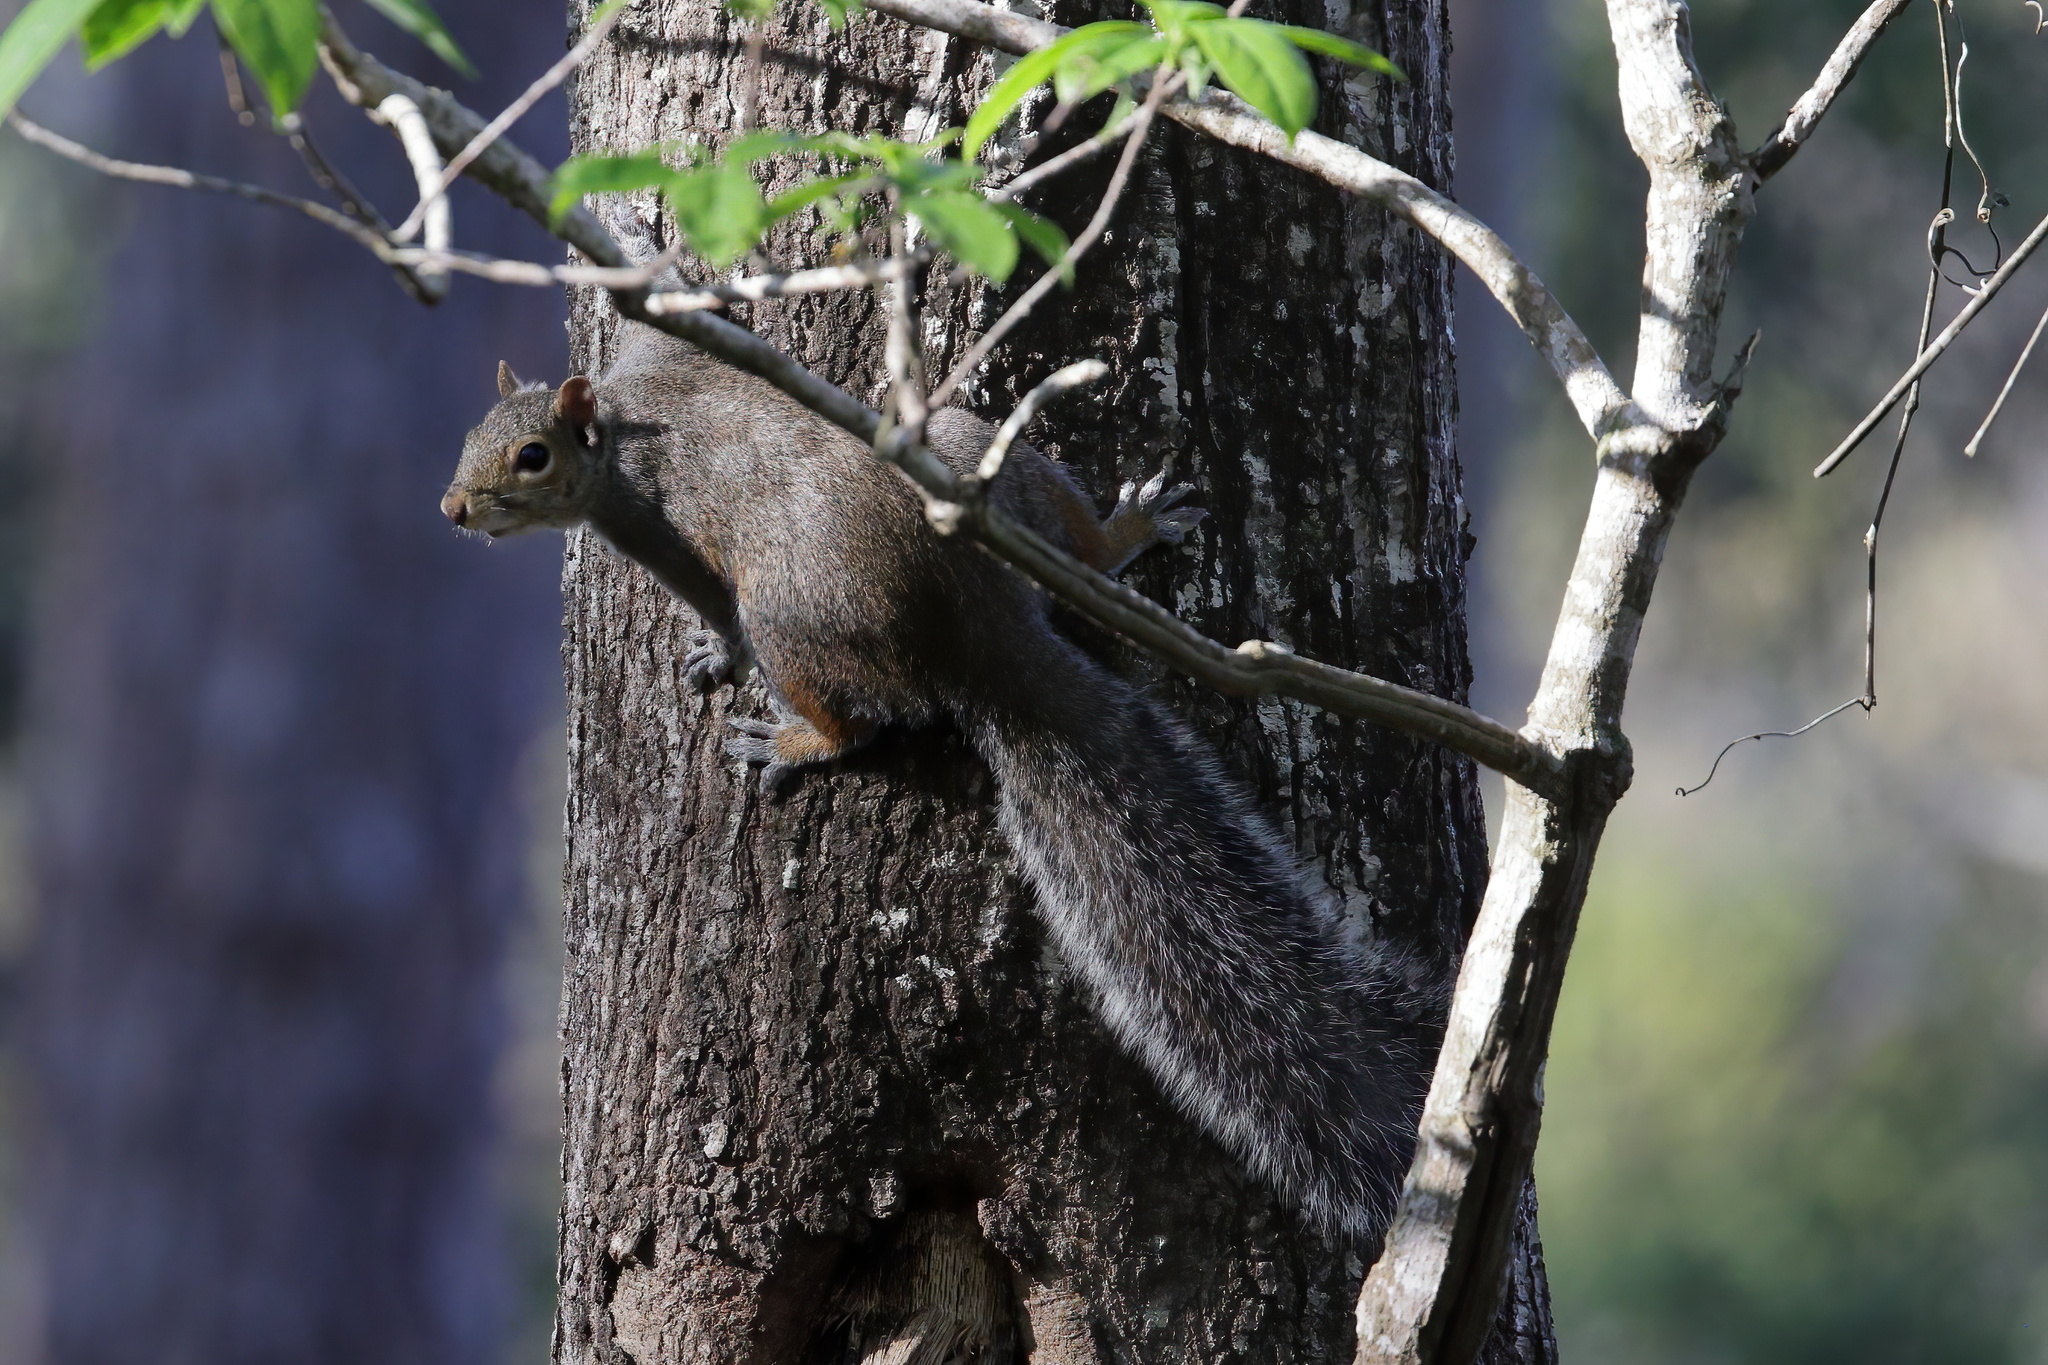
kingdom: Animalia
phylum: Chordata
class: Mammalia
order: Rodentia
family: Sciuridae
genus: Sciurus
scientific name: Sciurus carolinensis
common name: Eastern gray squirrel
